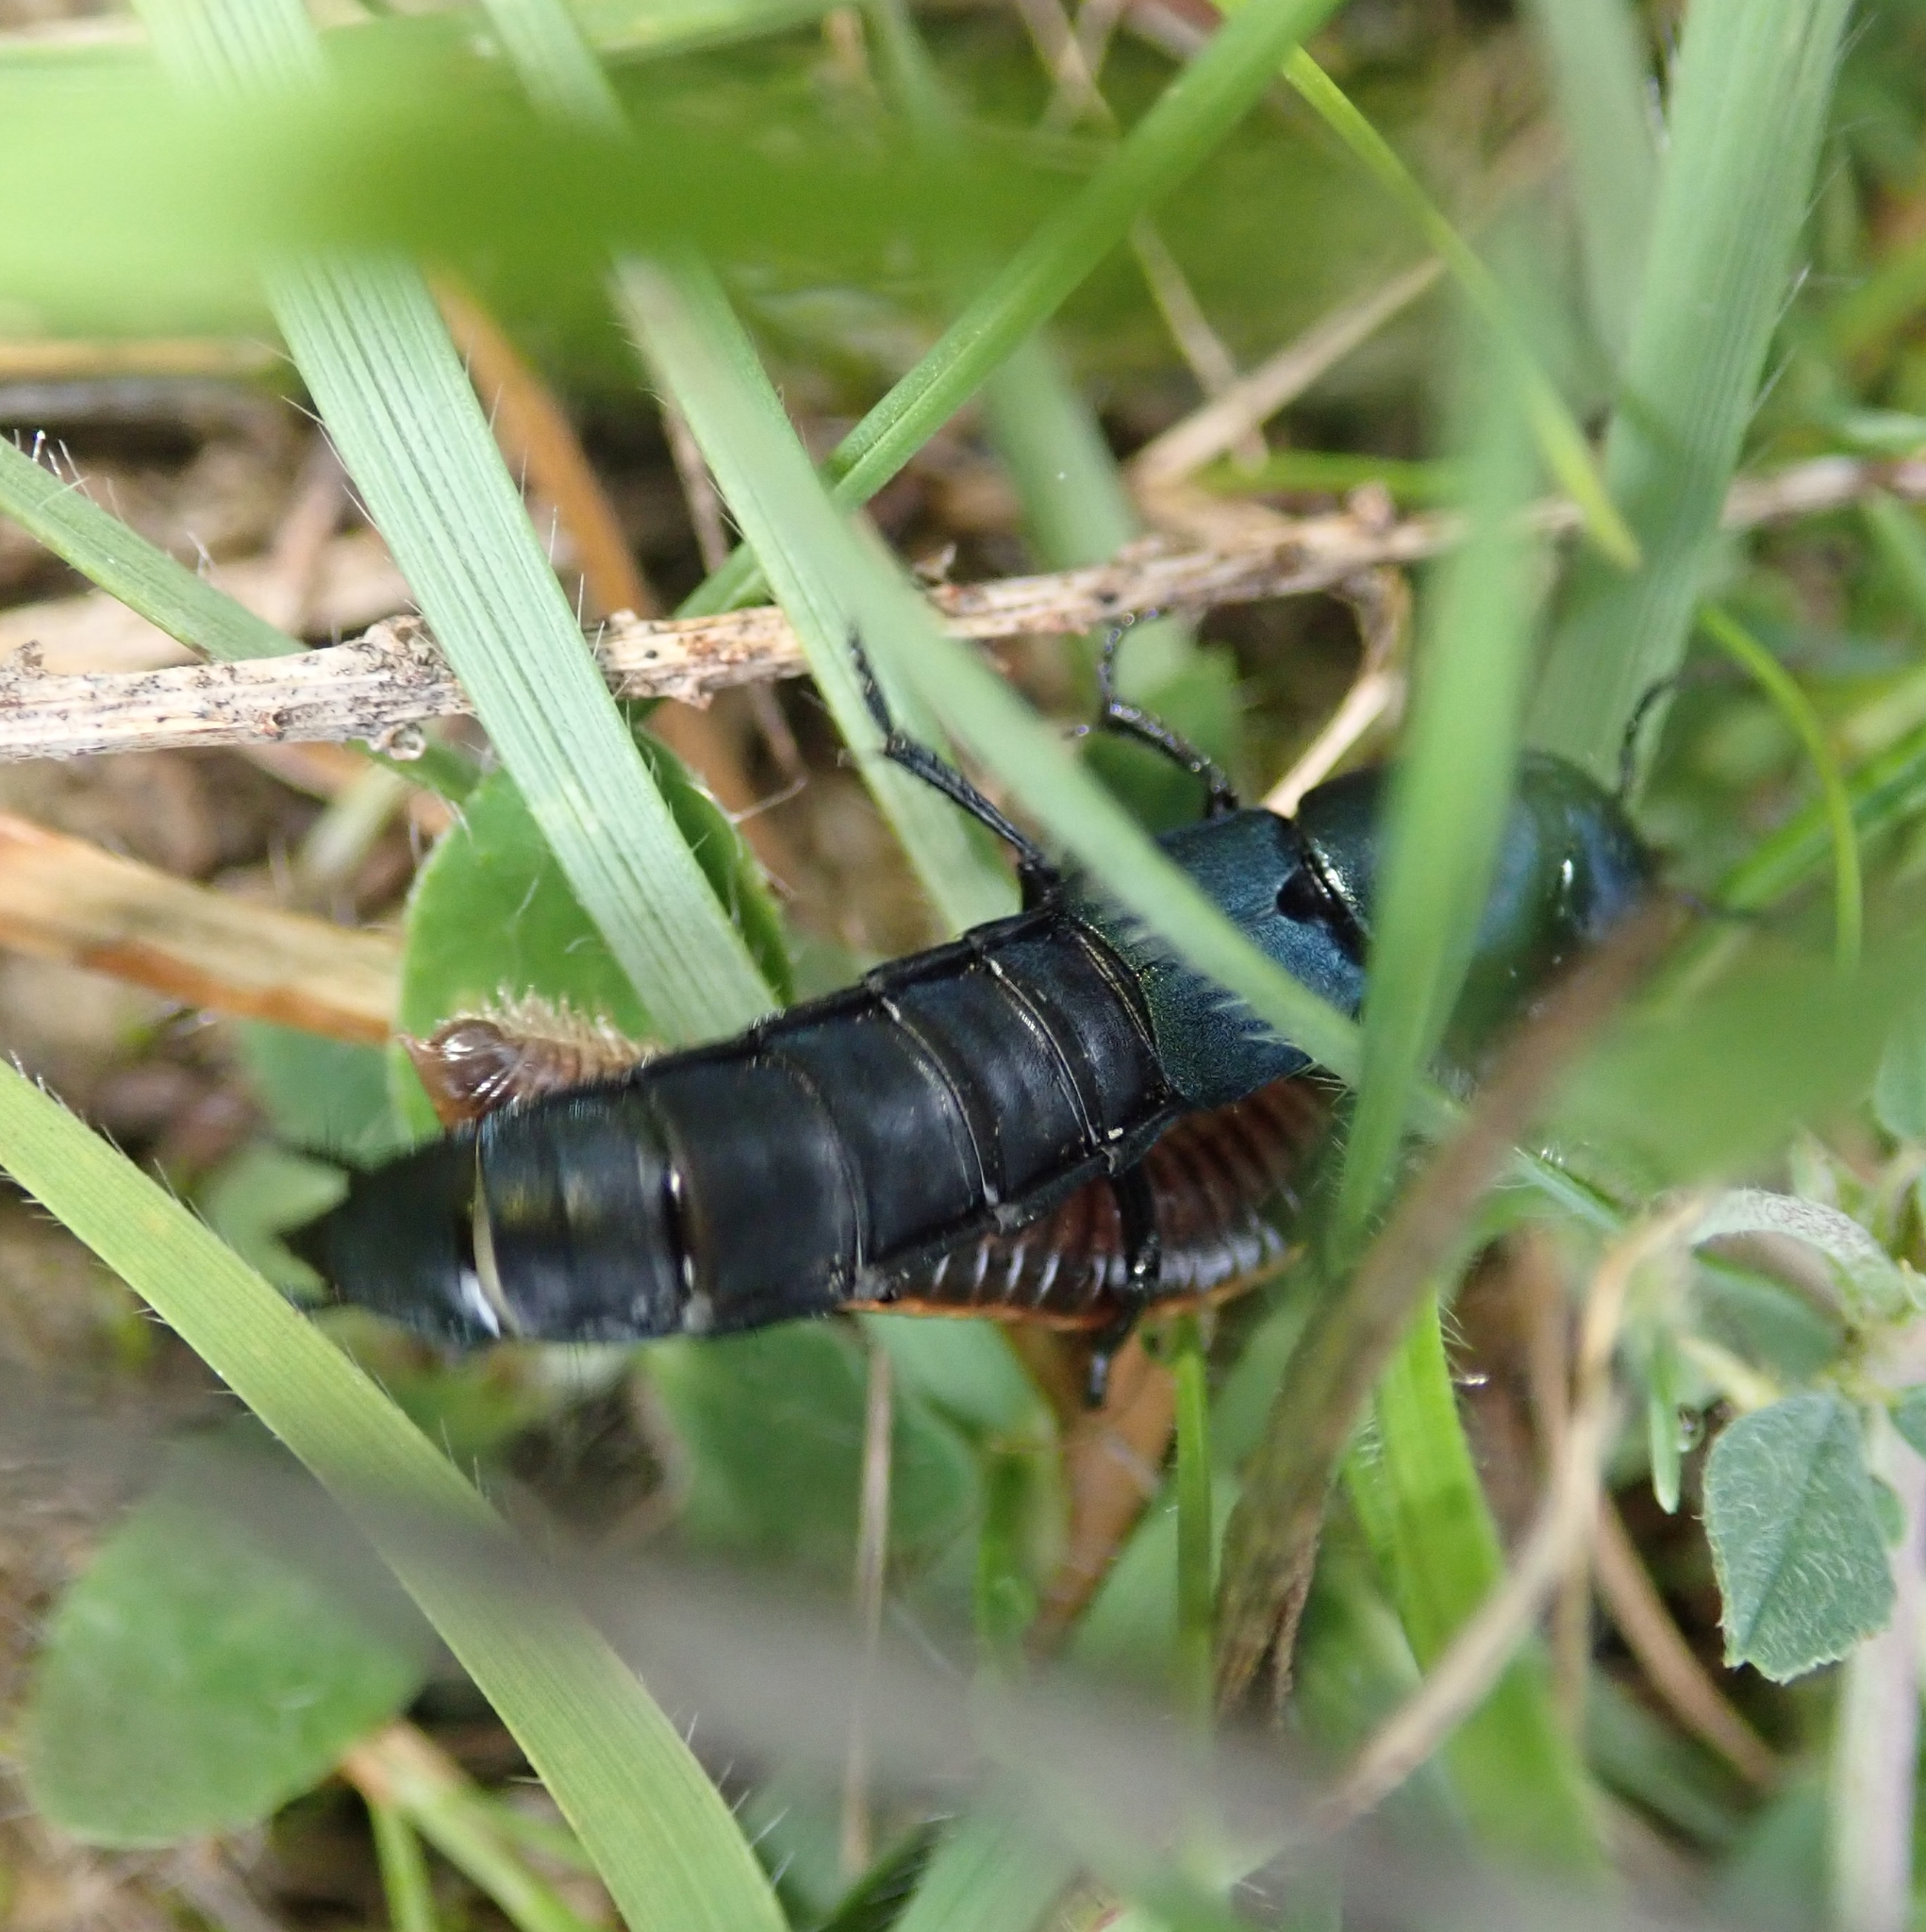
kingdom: Animalia
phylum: Arthropoda
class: Insecta
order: Coleoptera
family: Staphylinidae
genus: Ocypus
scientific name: Ocypus ophthalmicus
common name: Blue rove-beetle
